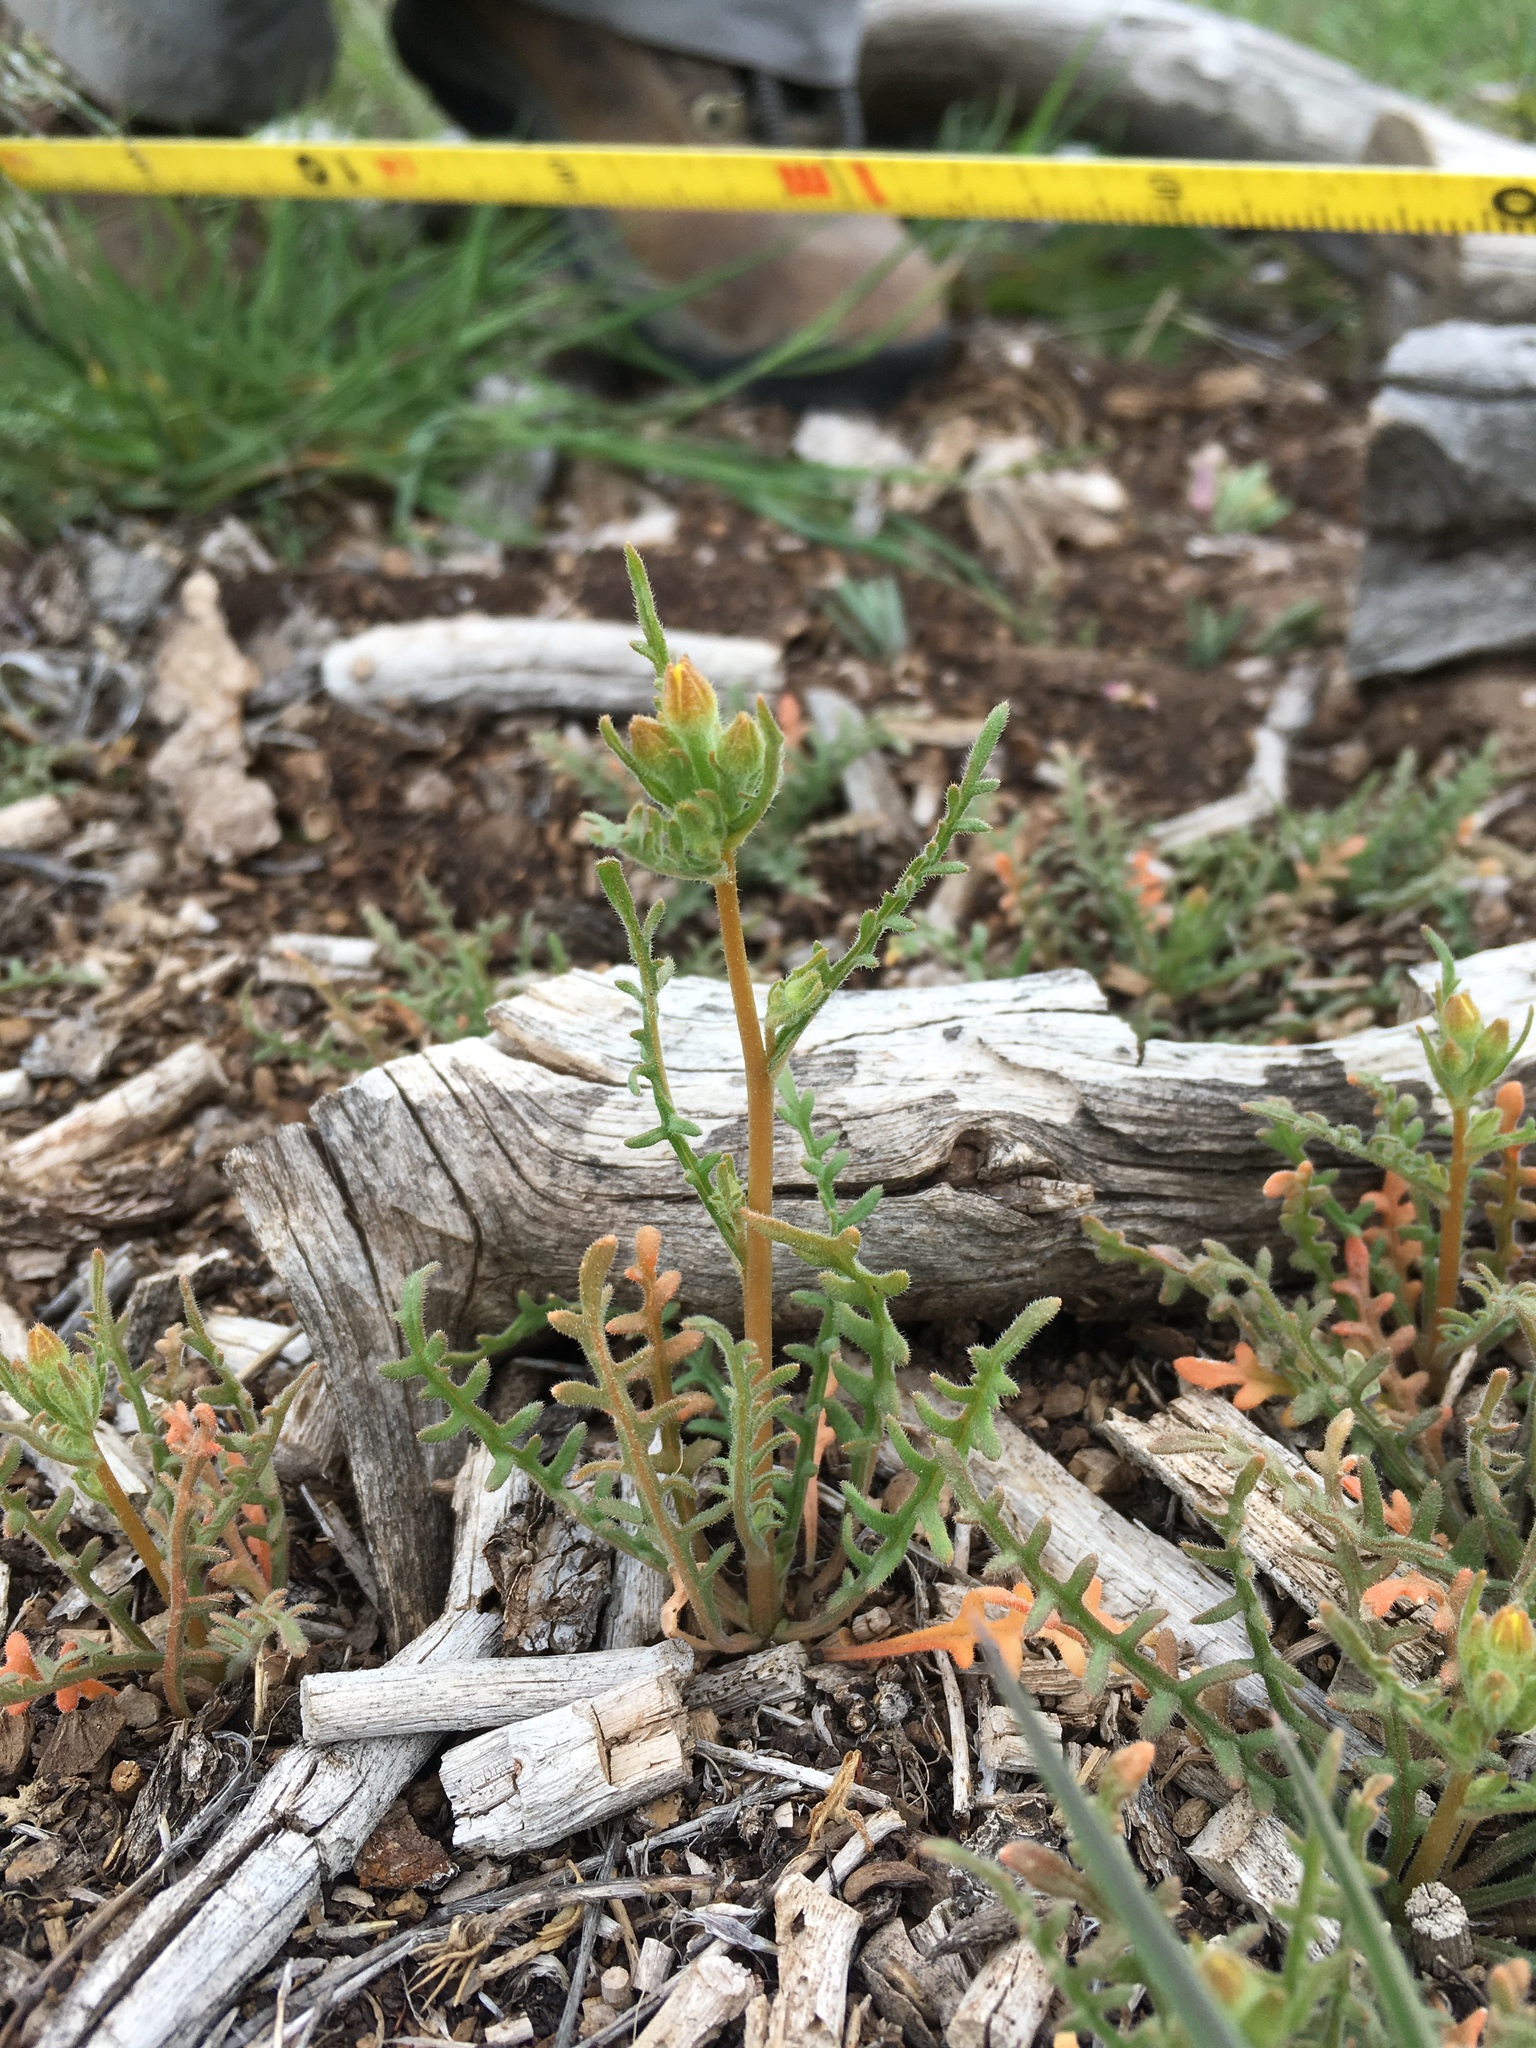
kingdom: Plantae
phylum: Tracheophyta
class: Magnoliopsida
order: Cornales
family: Loasaceae
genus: Mentzelia
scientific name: Mentzelia albicaulis
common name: White-stem blazingstar
